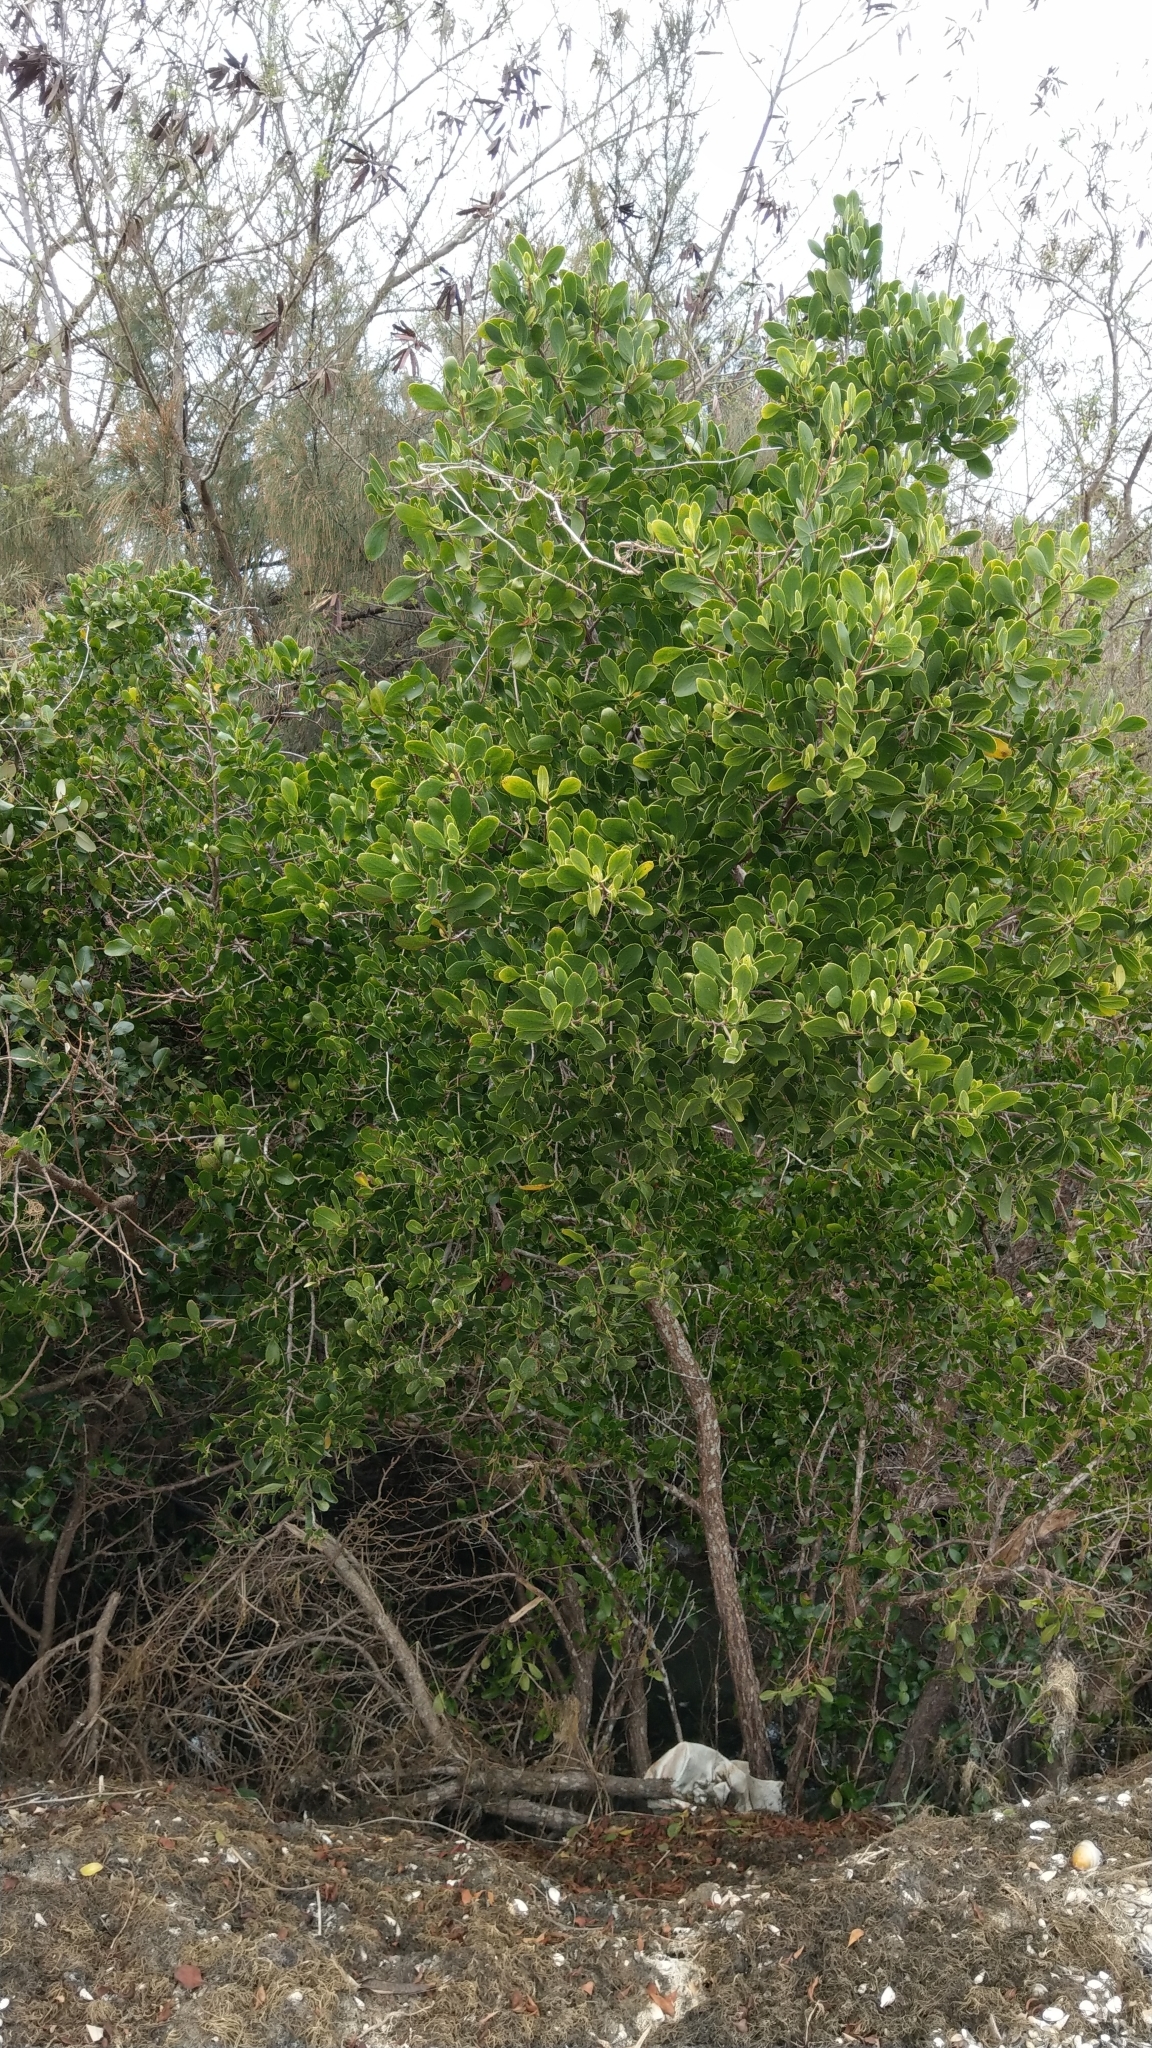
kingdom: Plantae
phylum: Tracheophyta
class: Magnoliopsida
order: Myrtales
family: Combretaceae
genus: Lumnitzera
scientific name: Lumnitzera racemosa
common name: White-flowered black mangrove
